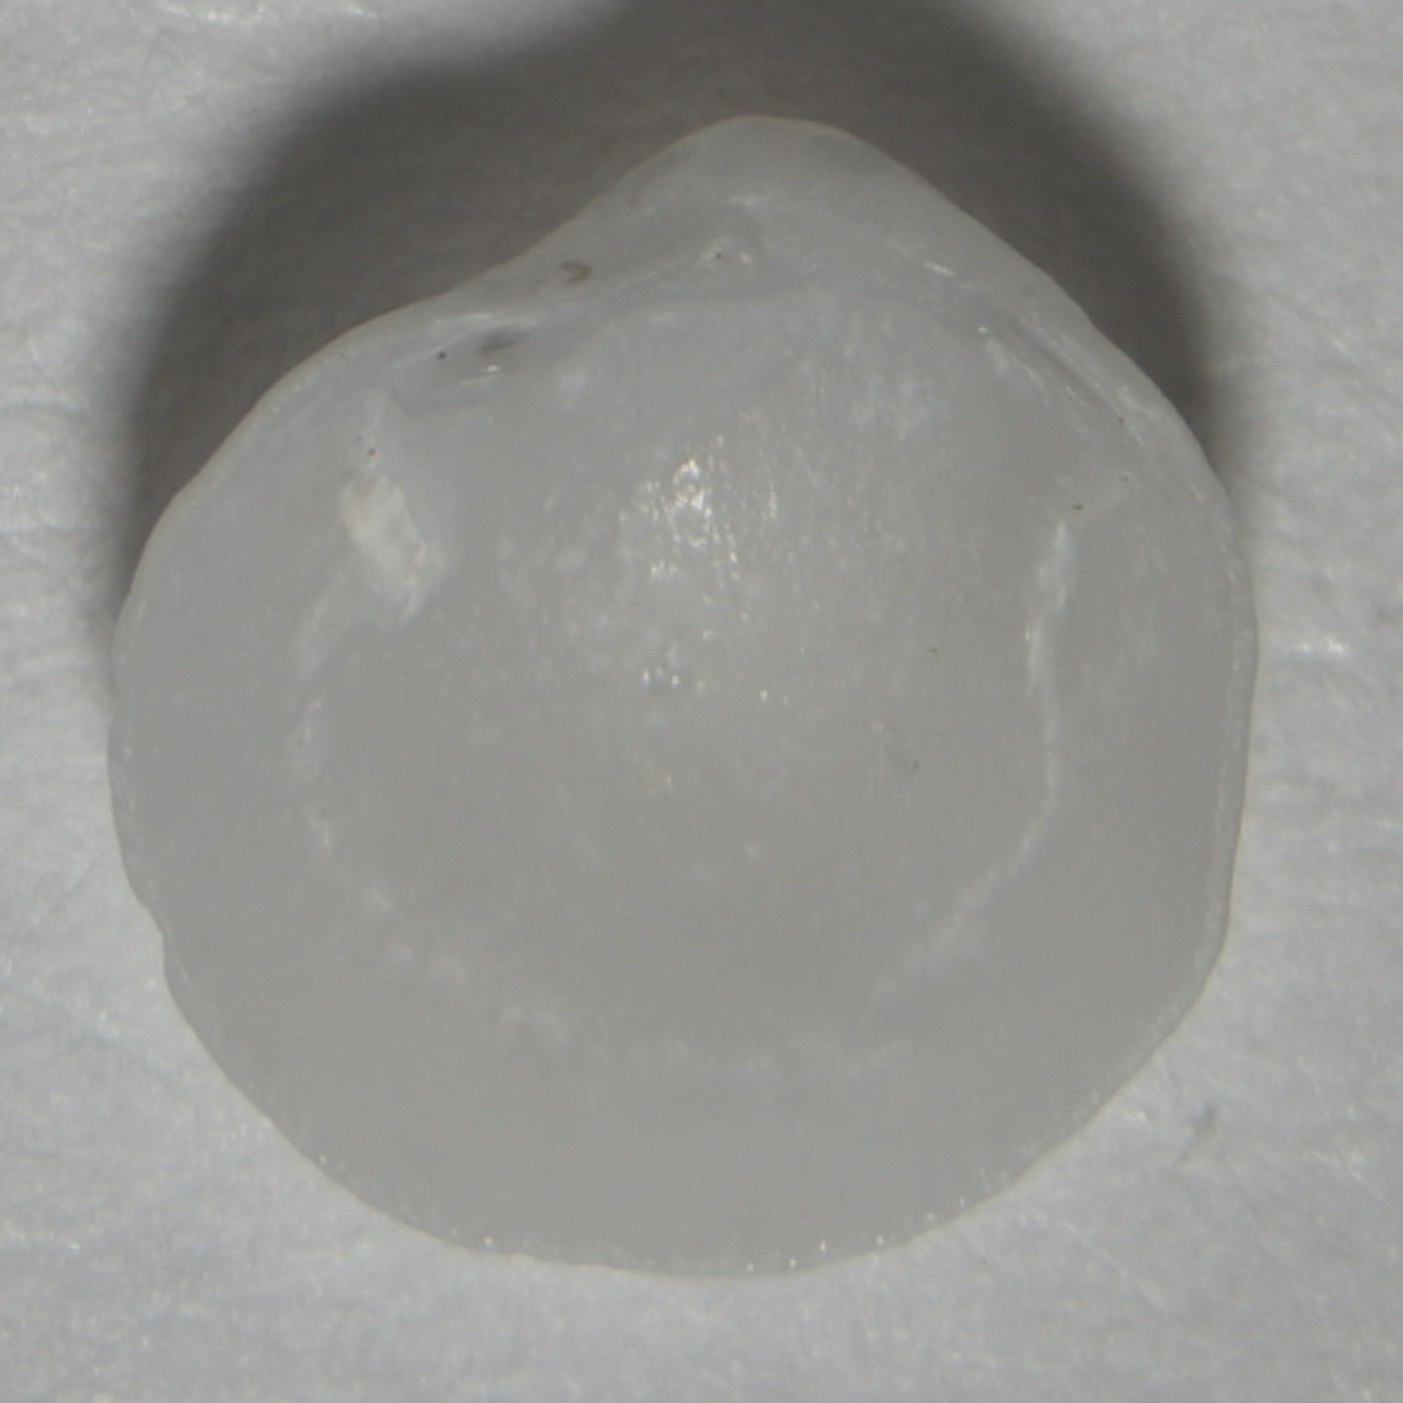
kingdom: Animalia
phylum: Mollusca
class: Bivalvia
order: Lucinida
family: Lucinidae
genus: Parvilucina
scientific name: Parvilucina crenella
